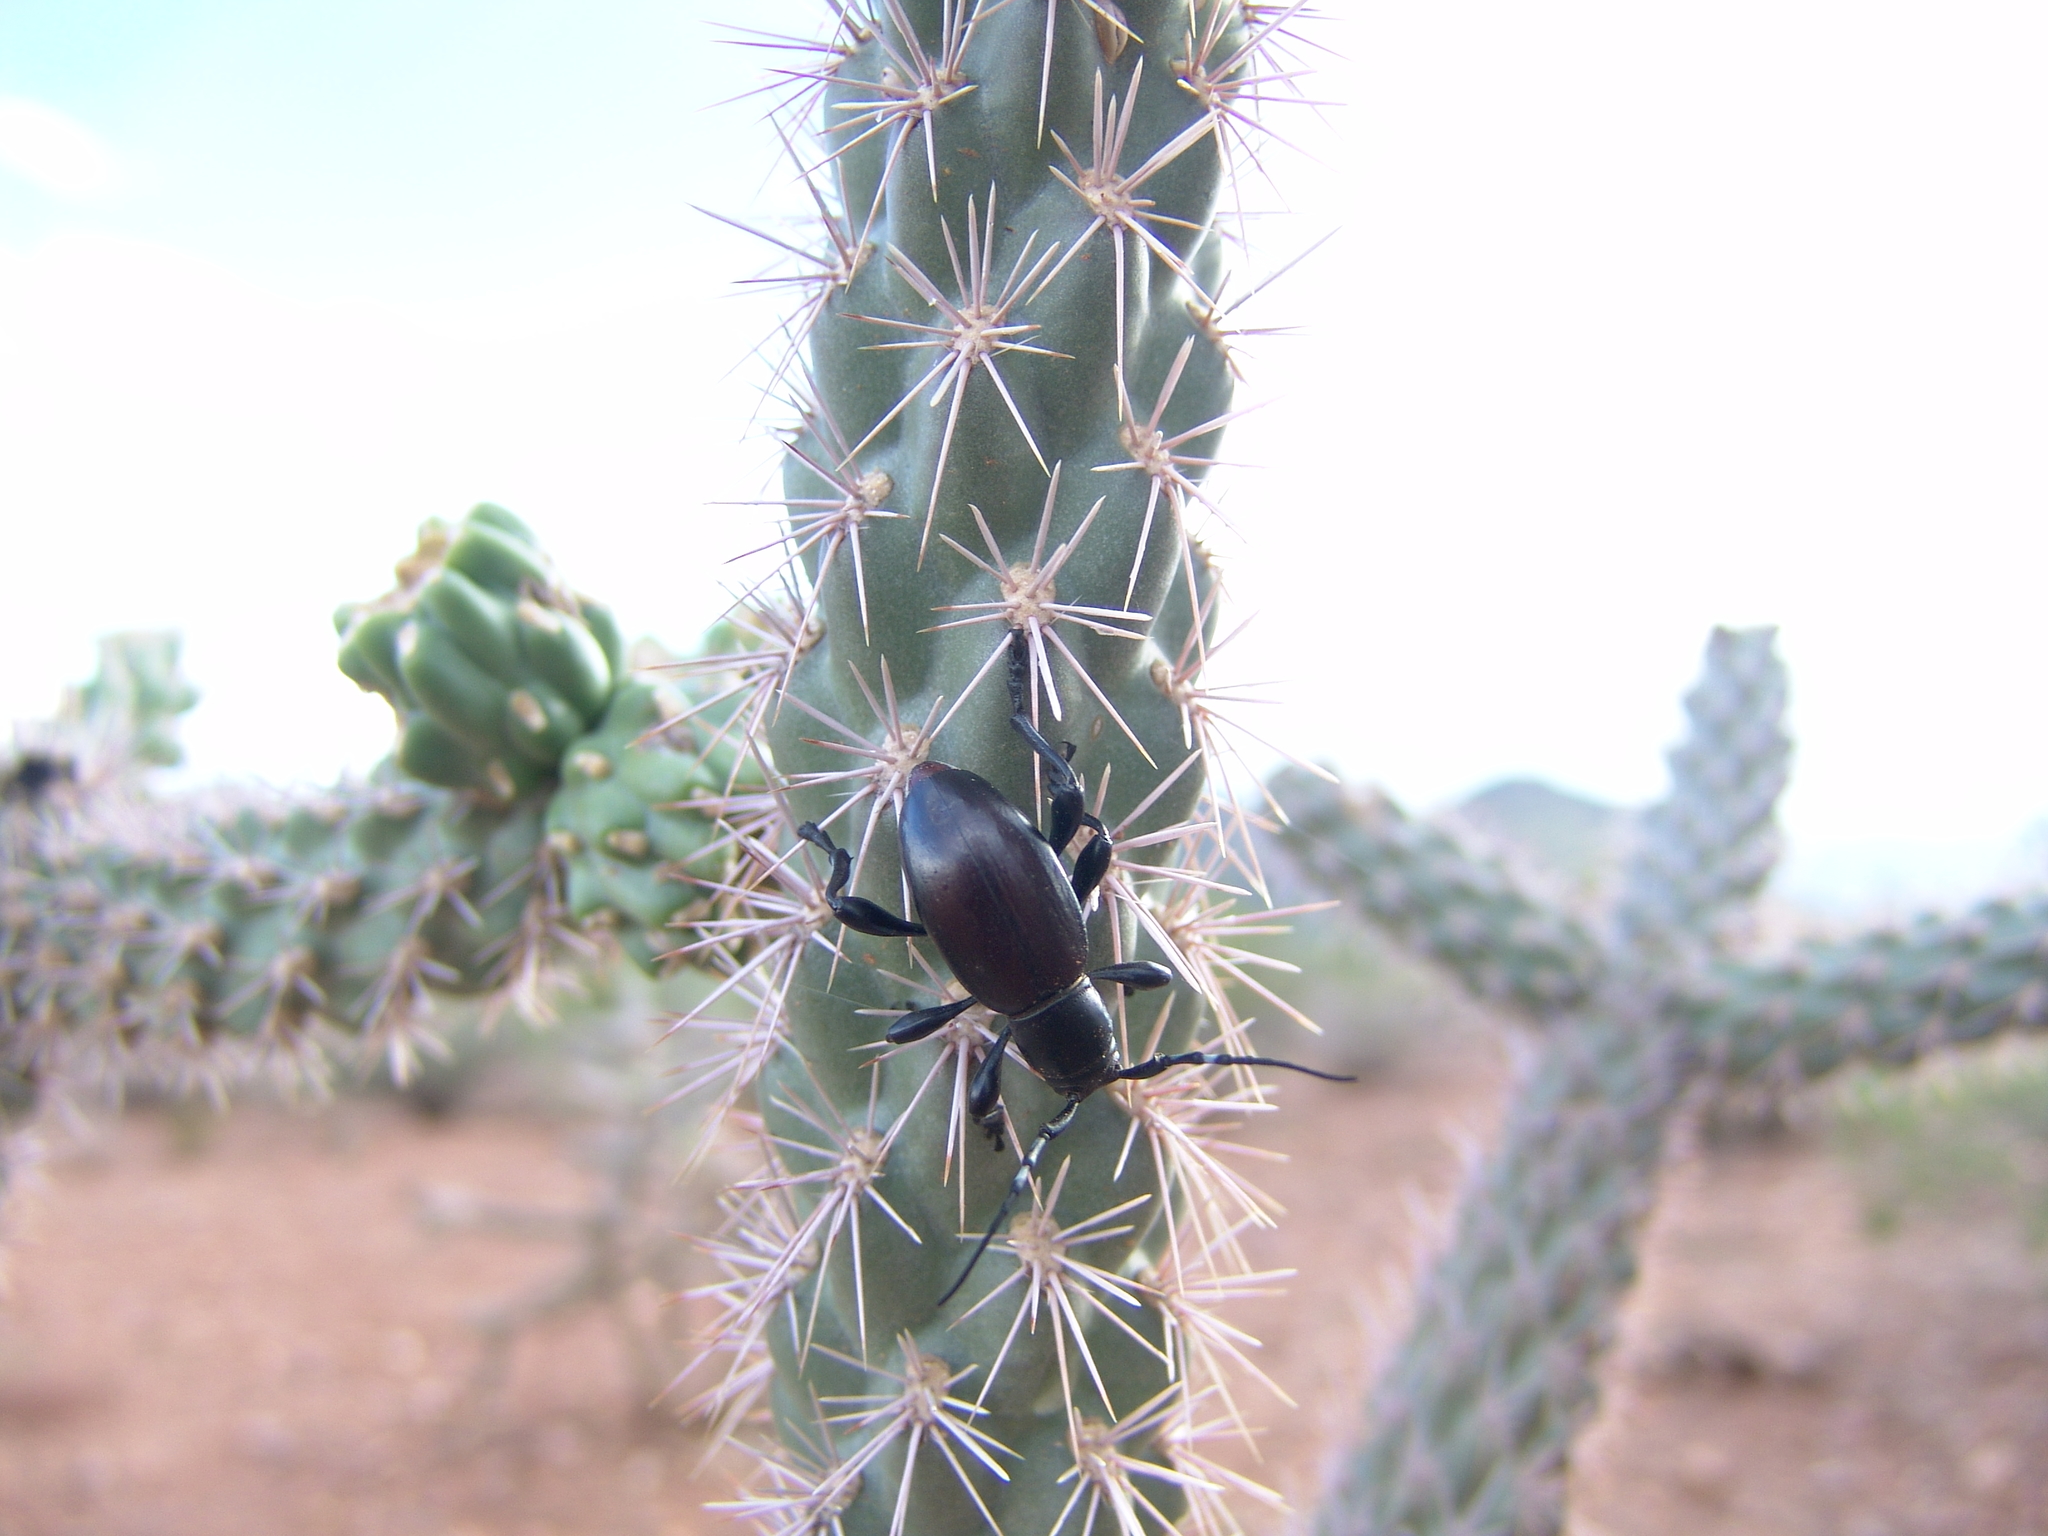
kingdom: Animalia
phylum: Arthropoda
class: Insecta
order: Coleoptera
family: Cerambycidae
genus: Moneilema
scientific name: Moneilema annulatum
